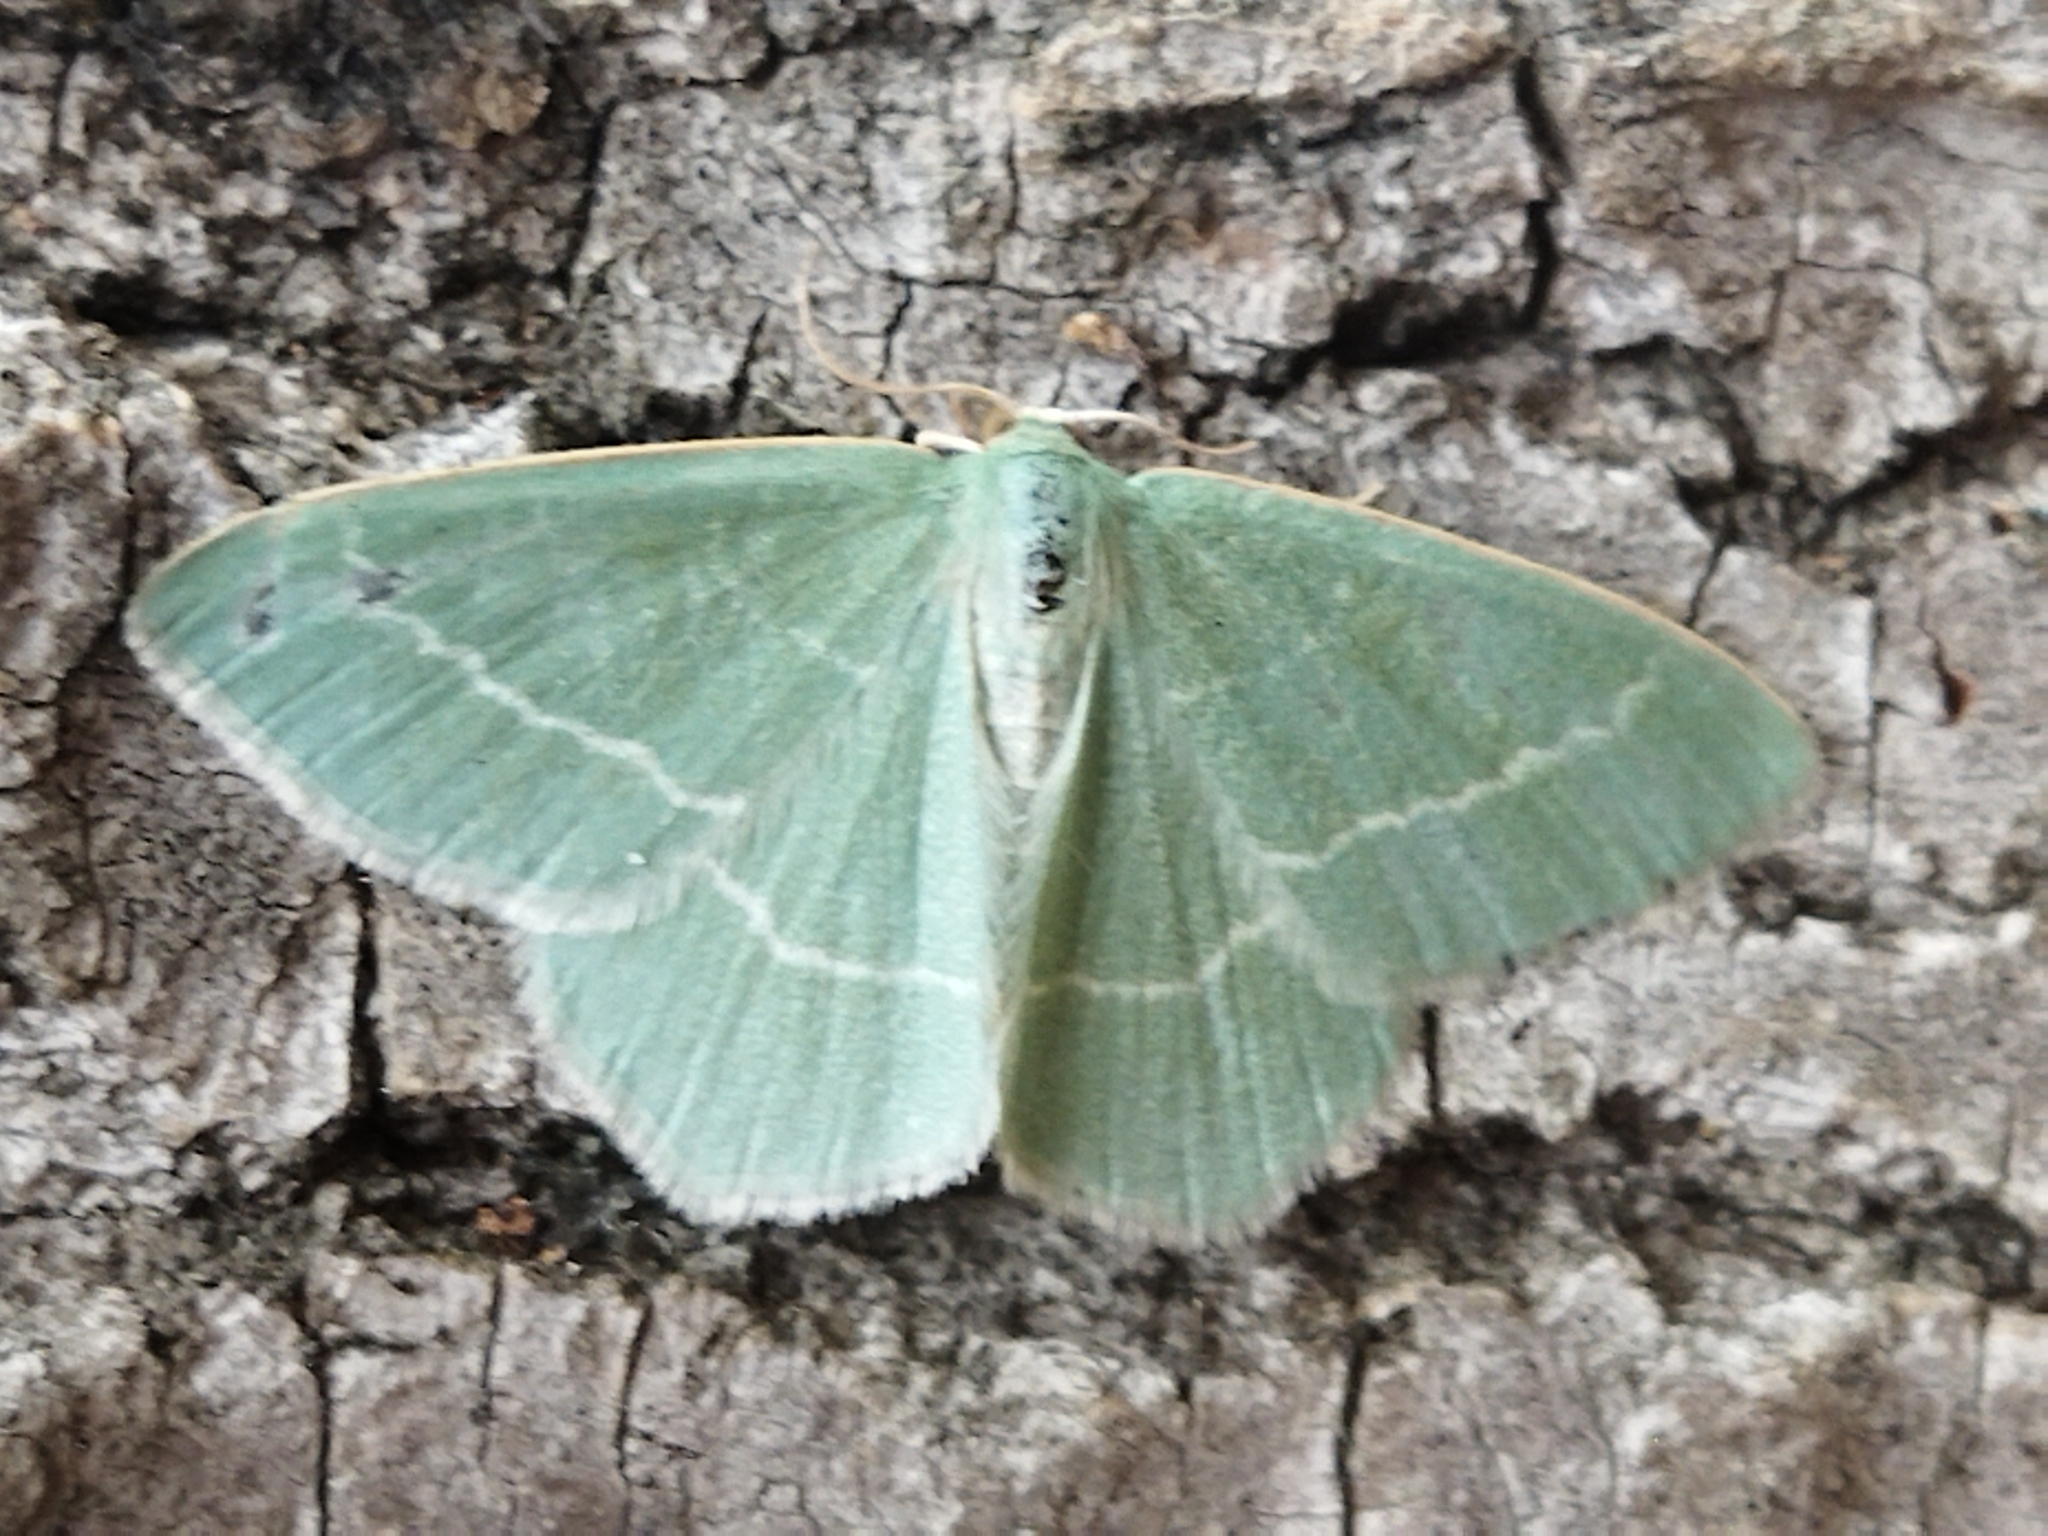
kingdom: Animalia
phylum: Arthropoda
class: Insecta
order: Lepidoptera
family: Geometridae
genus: Chlorissa
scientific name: Chlorissa viridata
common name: Small grass emerald
